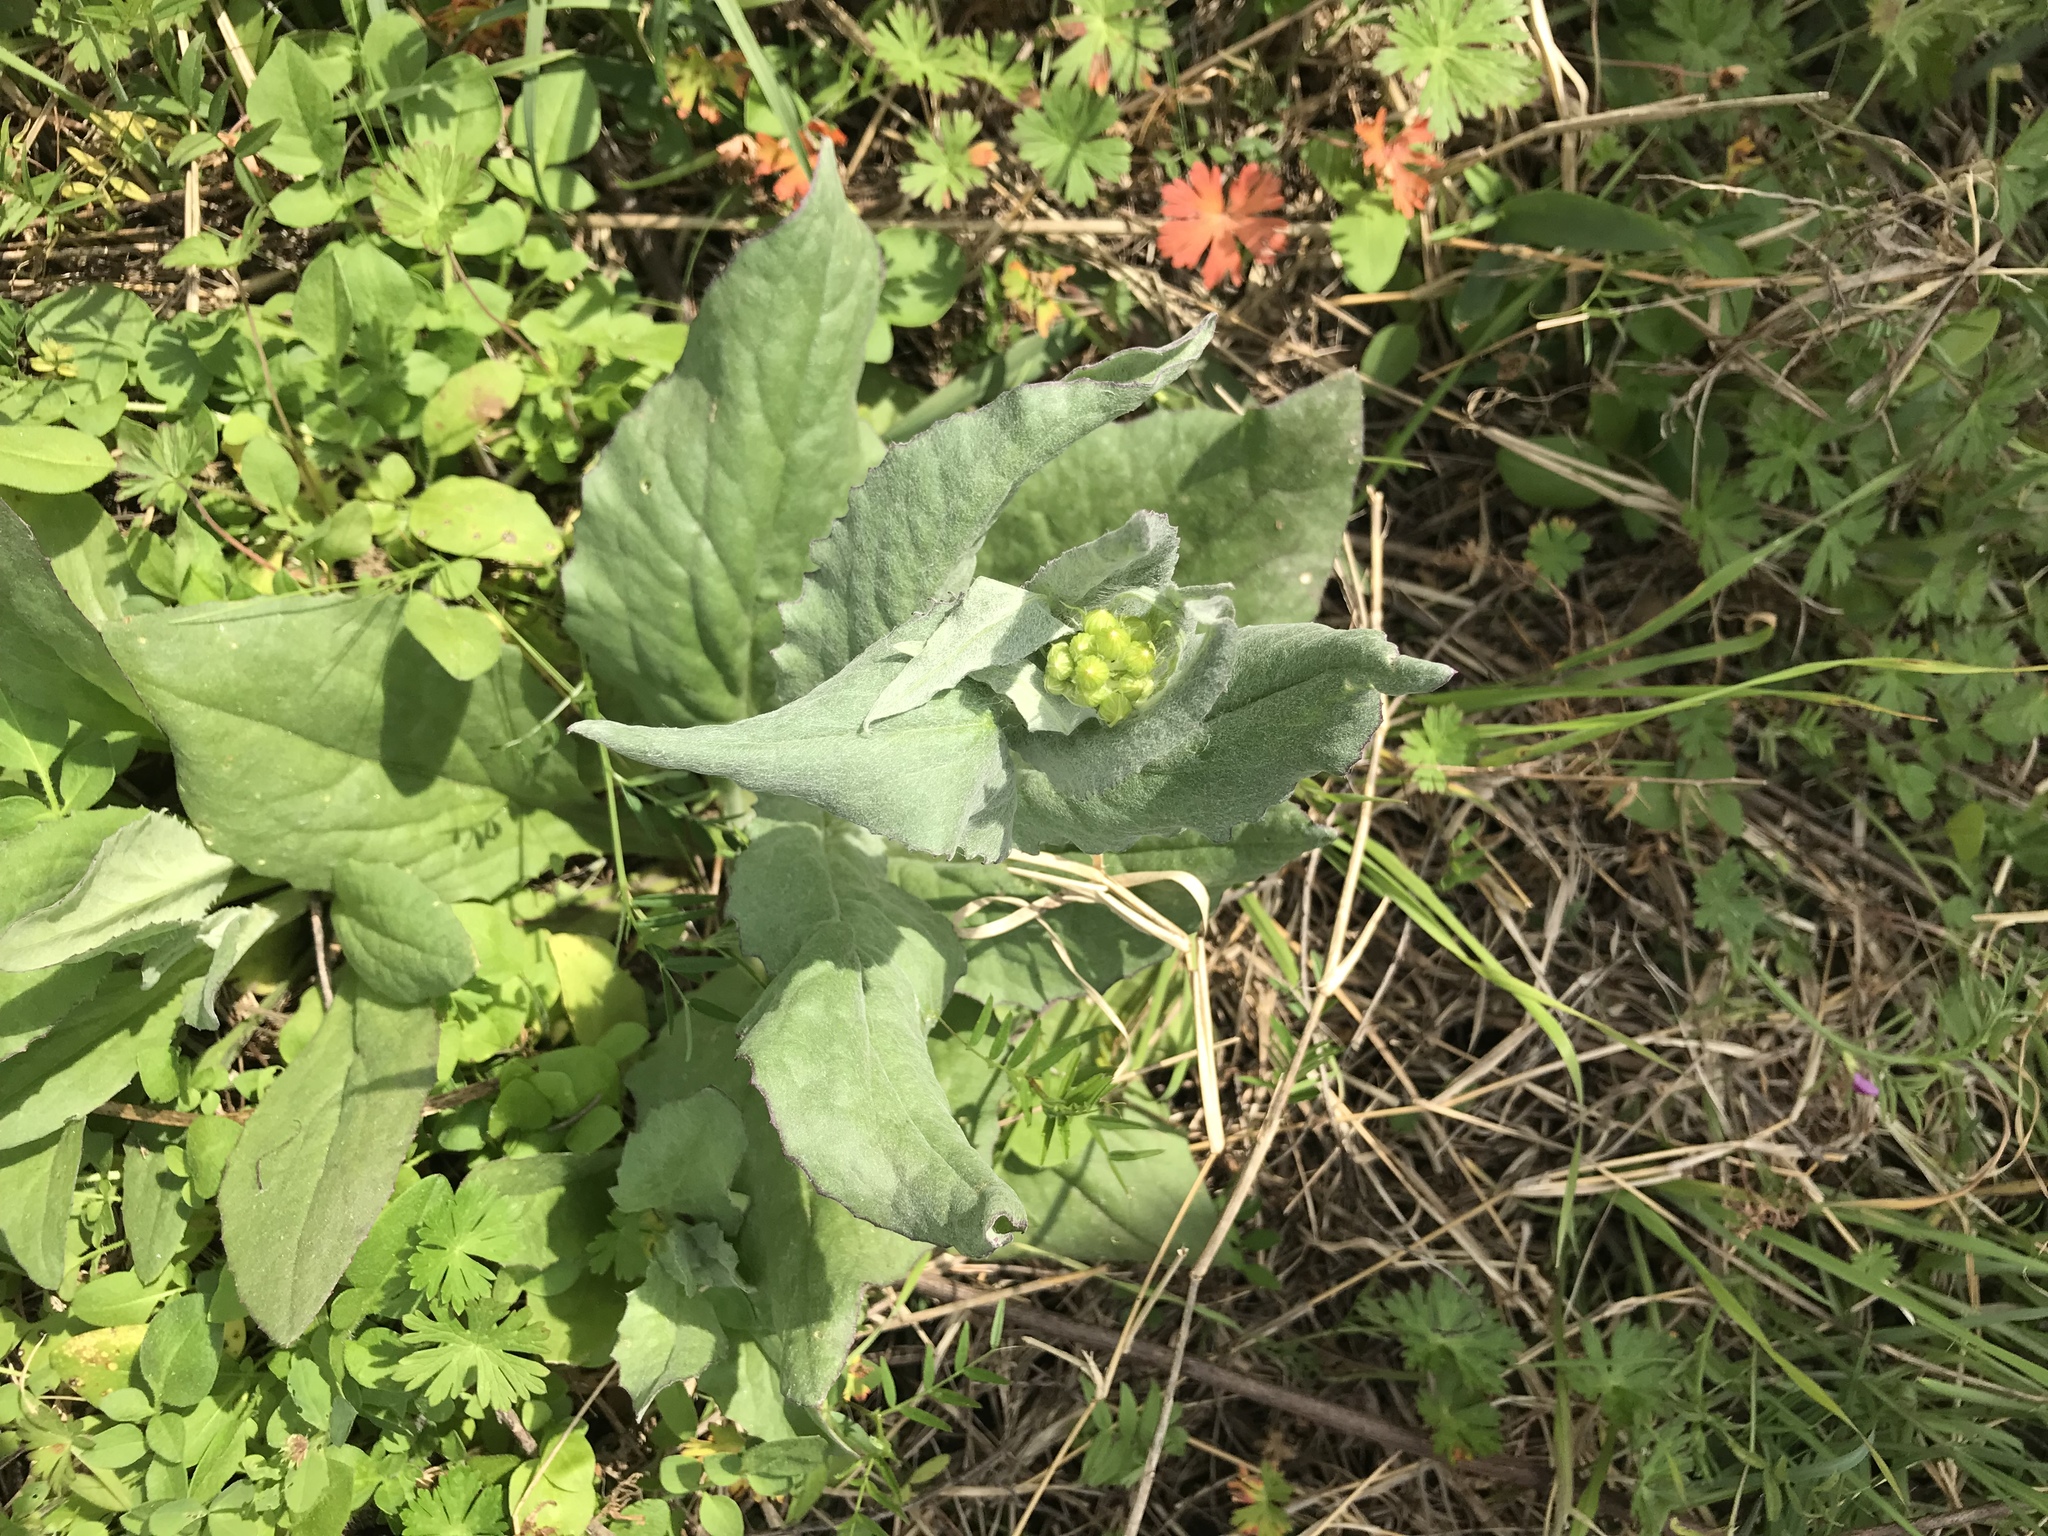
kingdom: Plantae
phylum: Tracheophyta
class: Magnoliopsida
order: Asterales
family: Asteraceae
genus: Senecio
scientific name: Senecio ampullaceus
